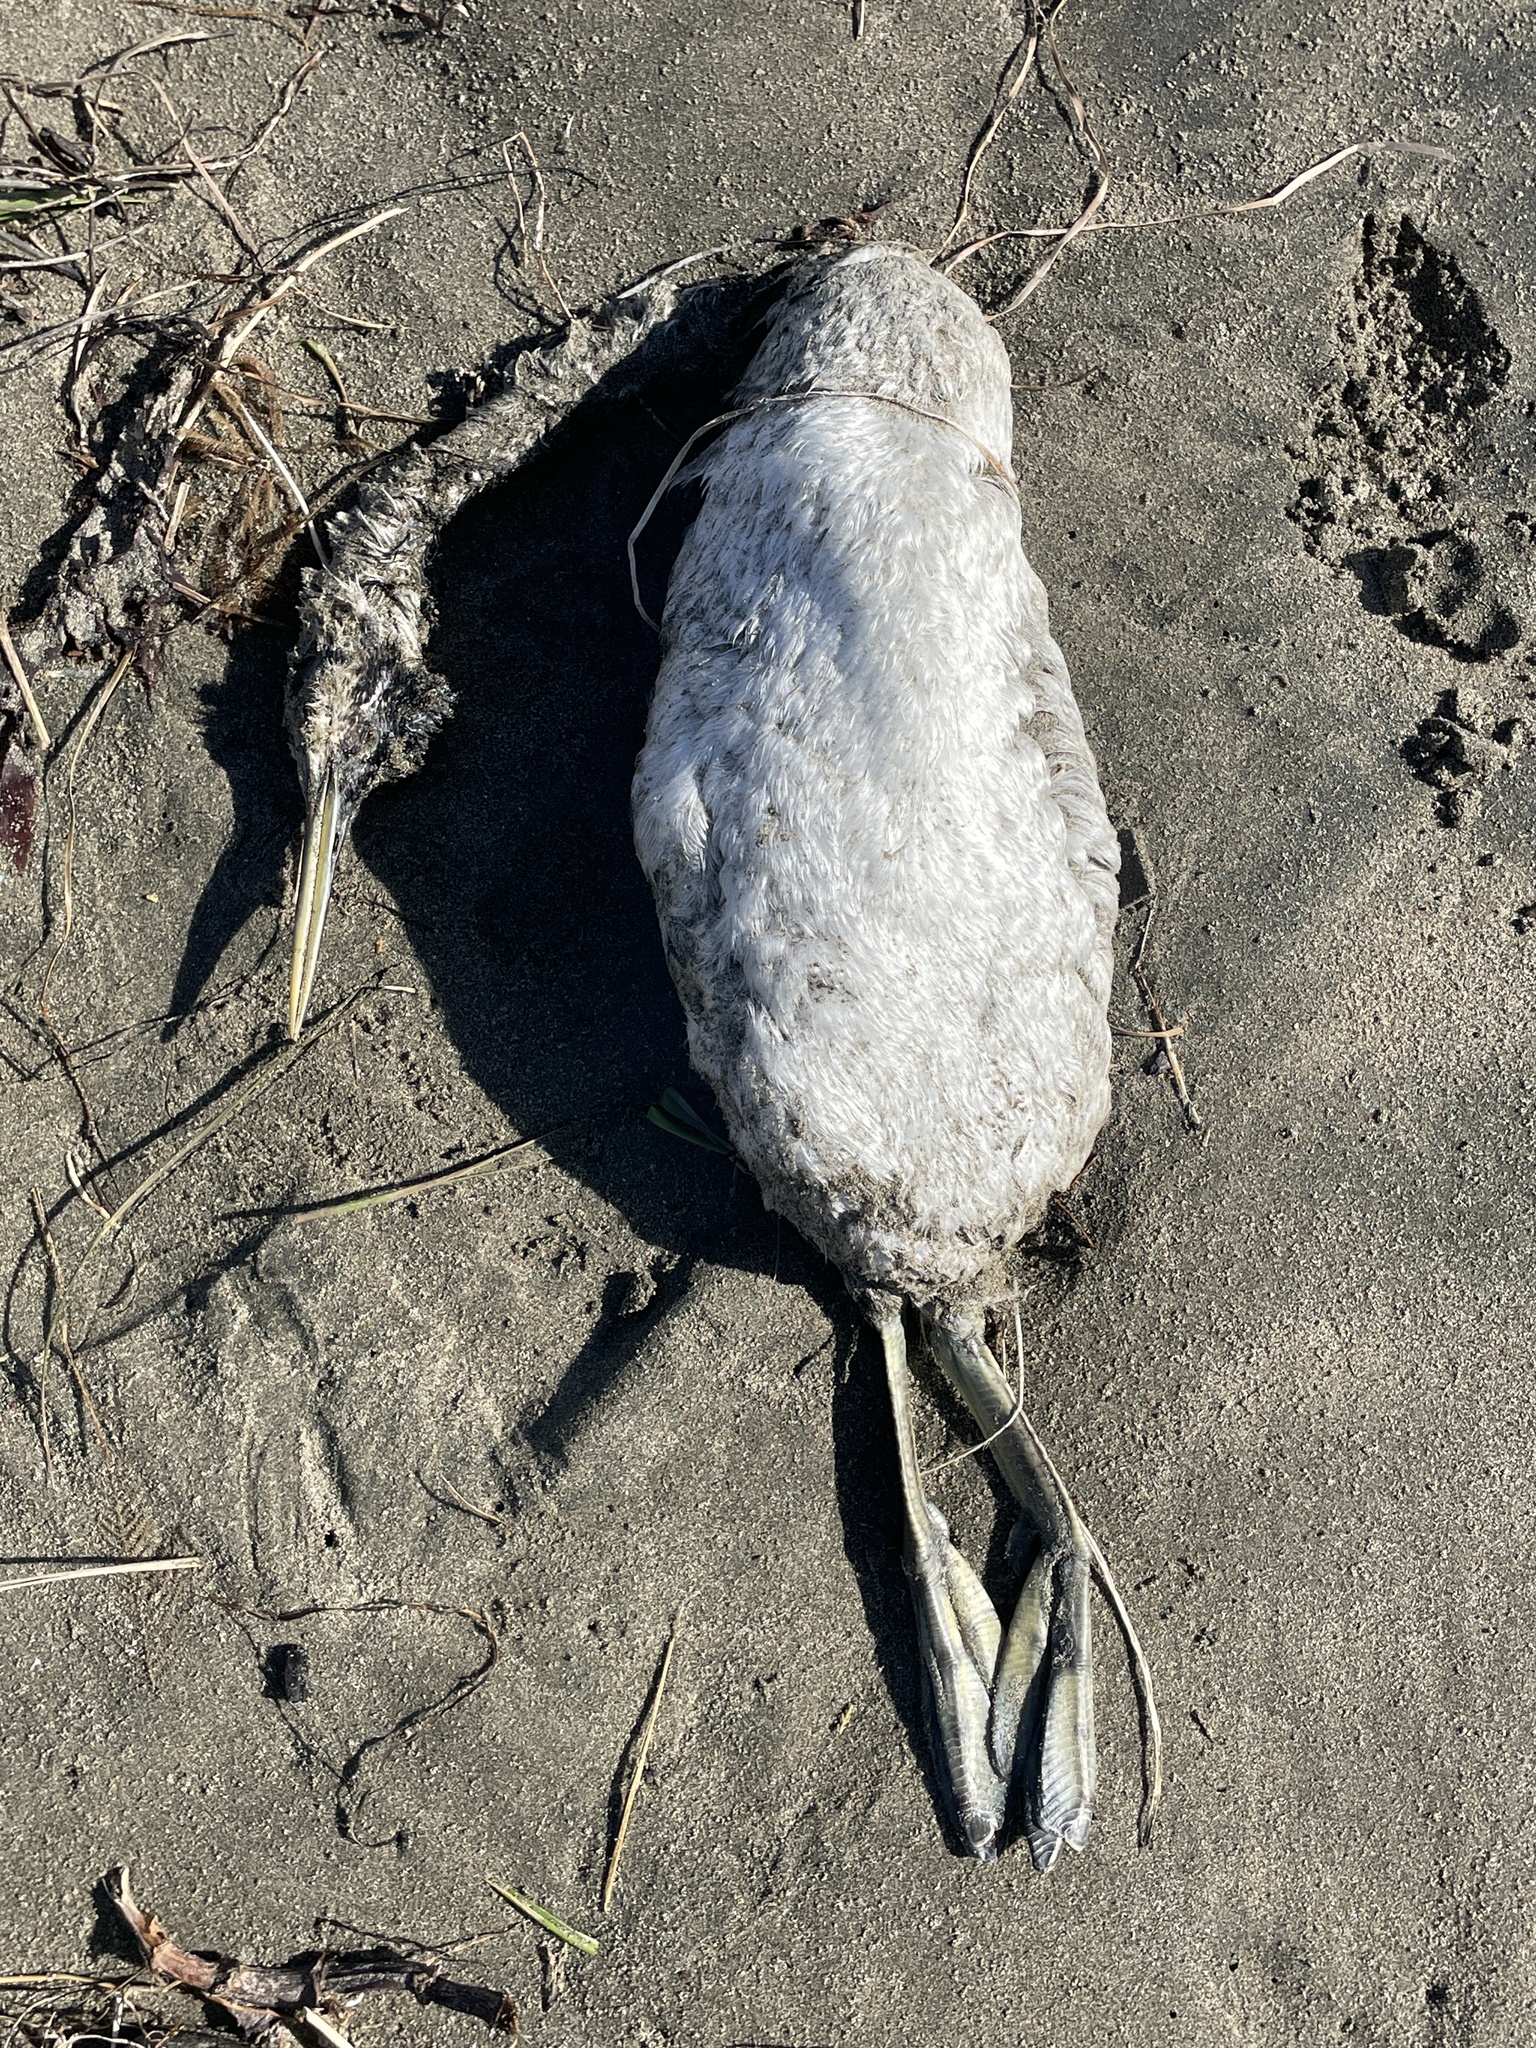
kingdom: Animalia
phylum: Chordata
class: Aves
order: Podicipediformes
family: Podicipedidae
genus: Aechmophorus
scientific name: Aechmophorus occidentalis
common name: Western grebe
